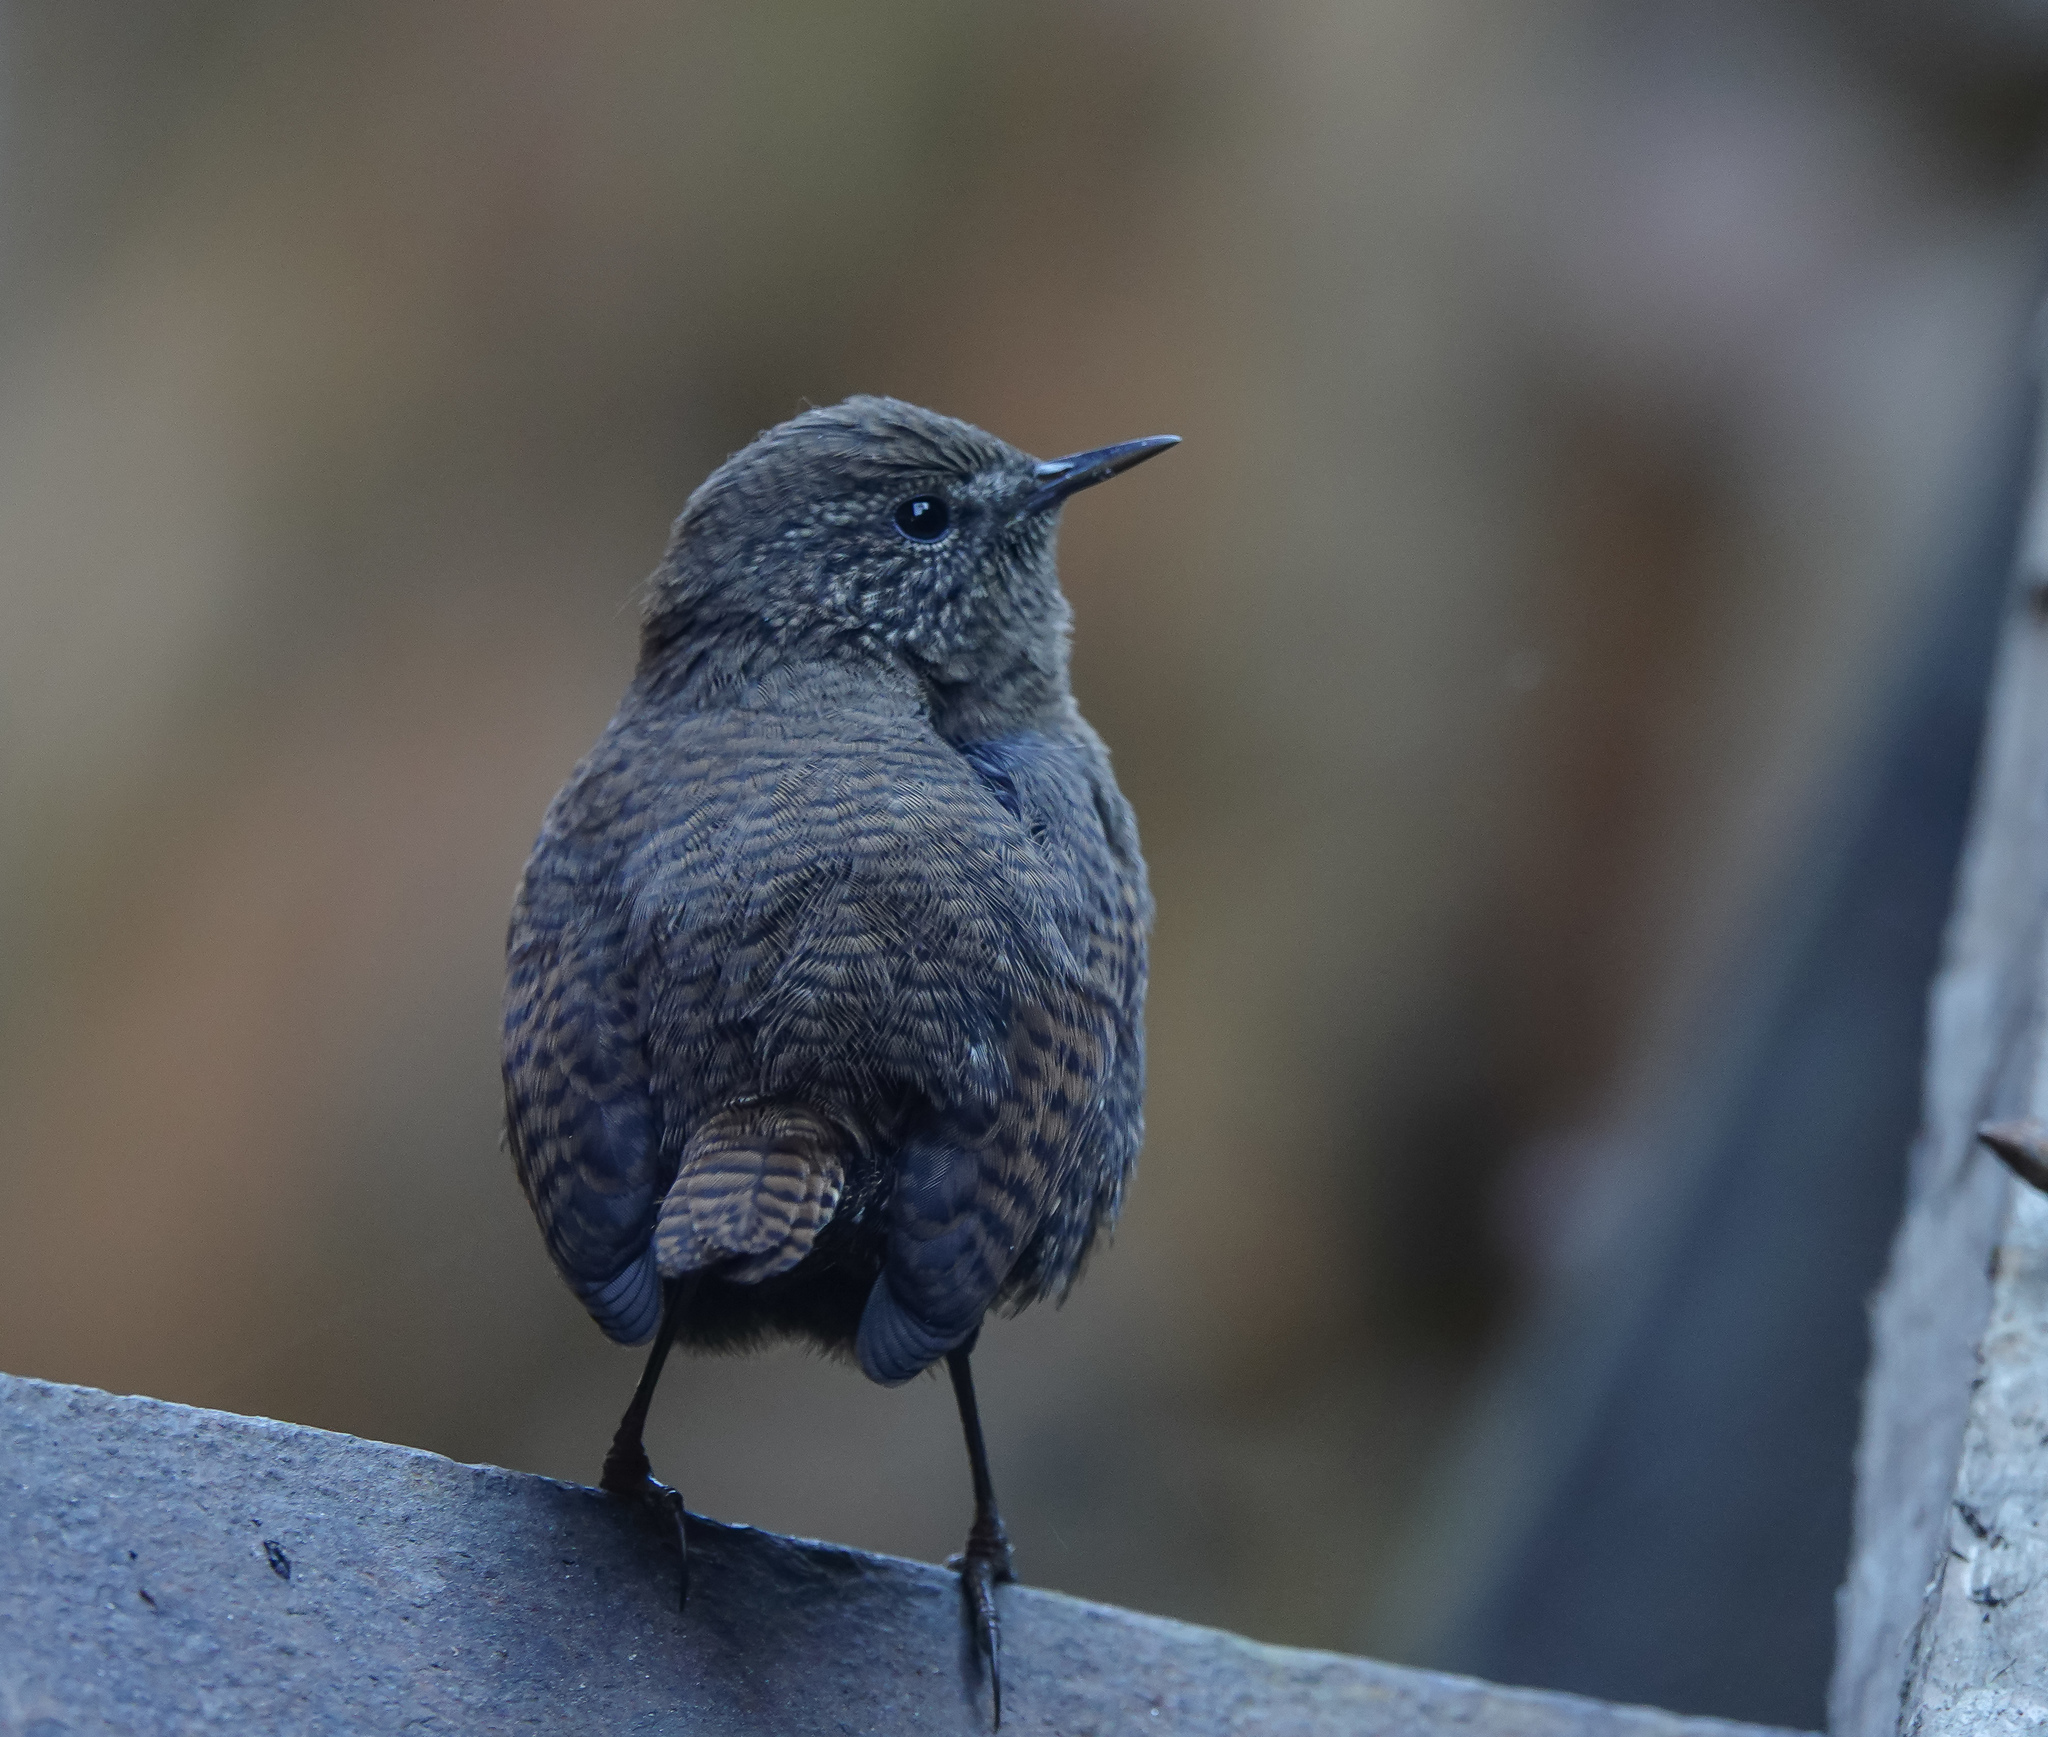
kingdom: Animalia
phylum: Chordata
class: Aves
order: Passeriformes
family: Troglodytidae
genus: Troglodytes
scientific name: Troglodytes troglodytes
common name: Eurasian wren
